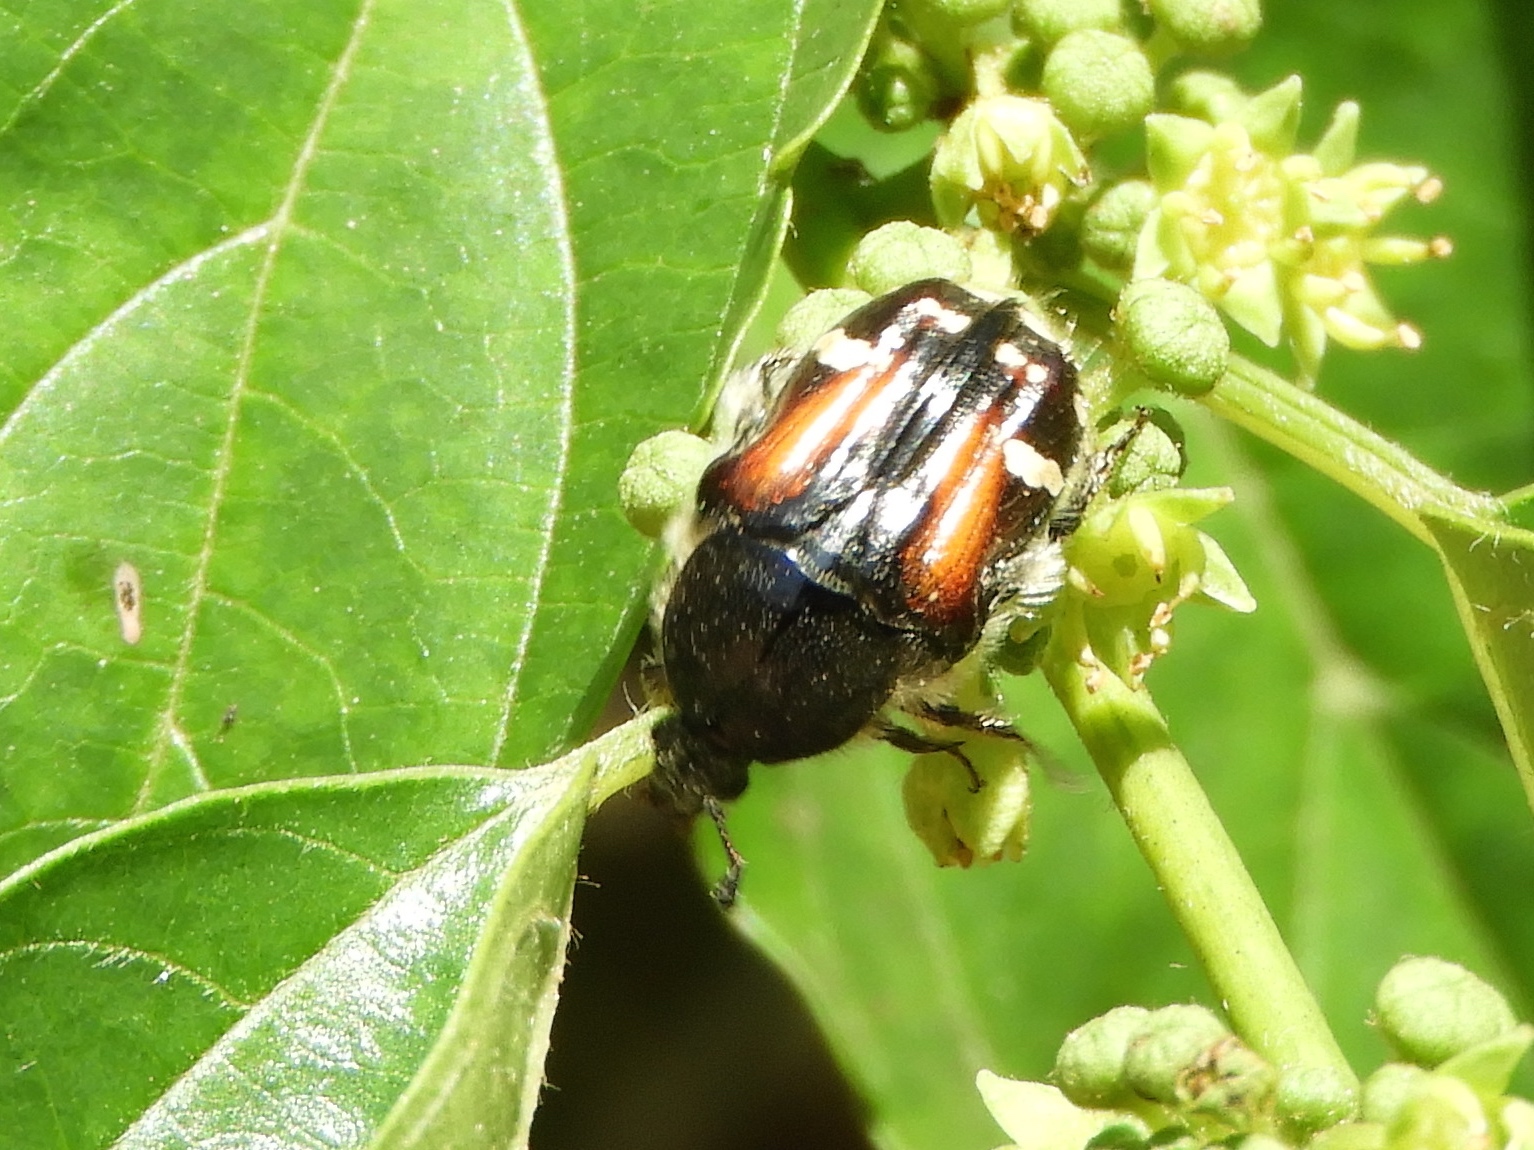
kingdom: Animalia
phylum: Arthropoda
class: Insecta
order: Coleoptera
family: Scarabaeidae
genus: Euphoria
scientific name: Euphoria pulchella
